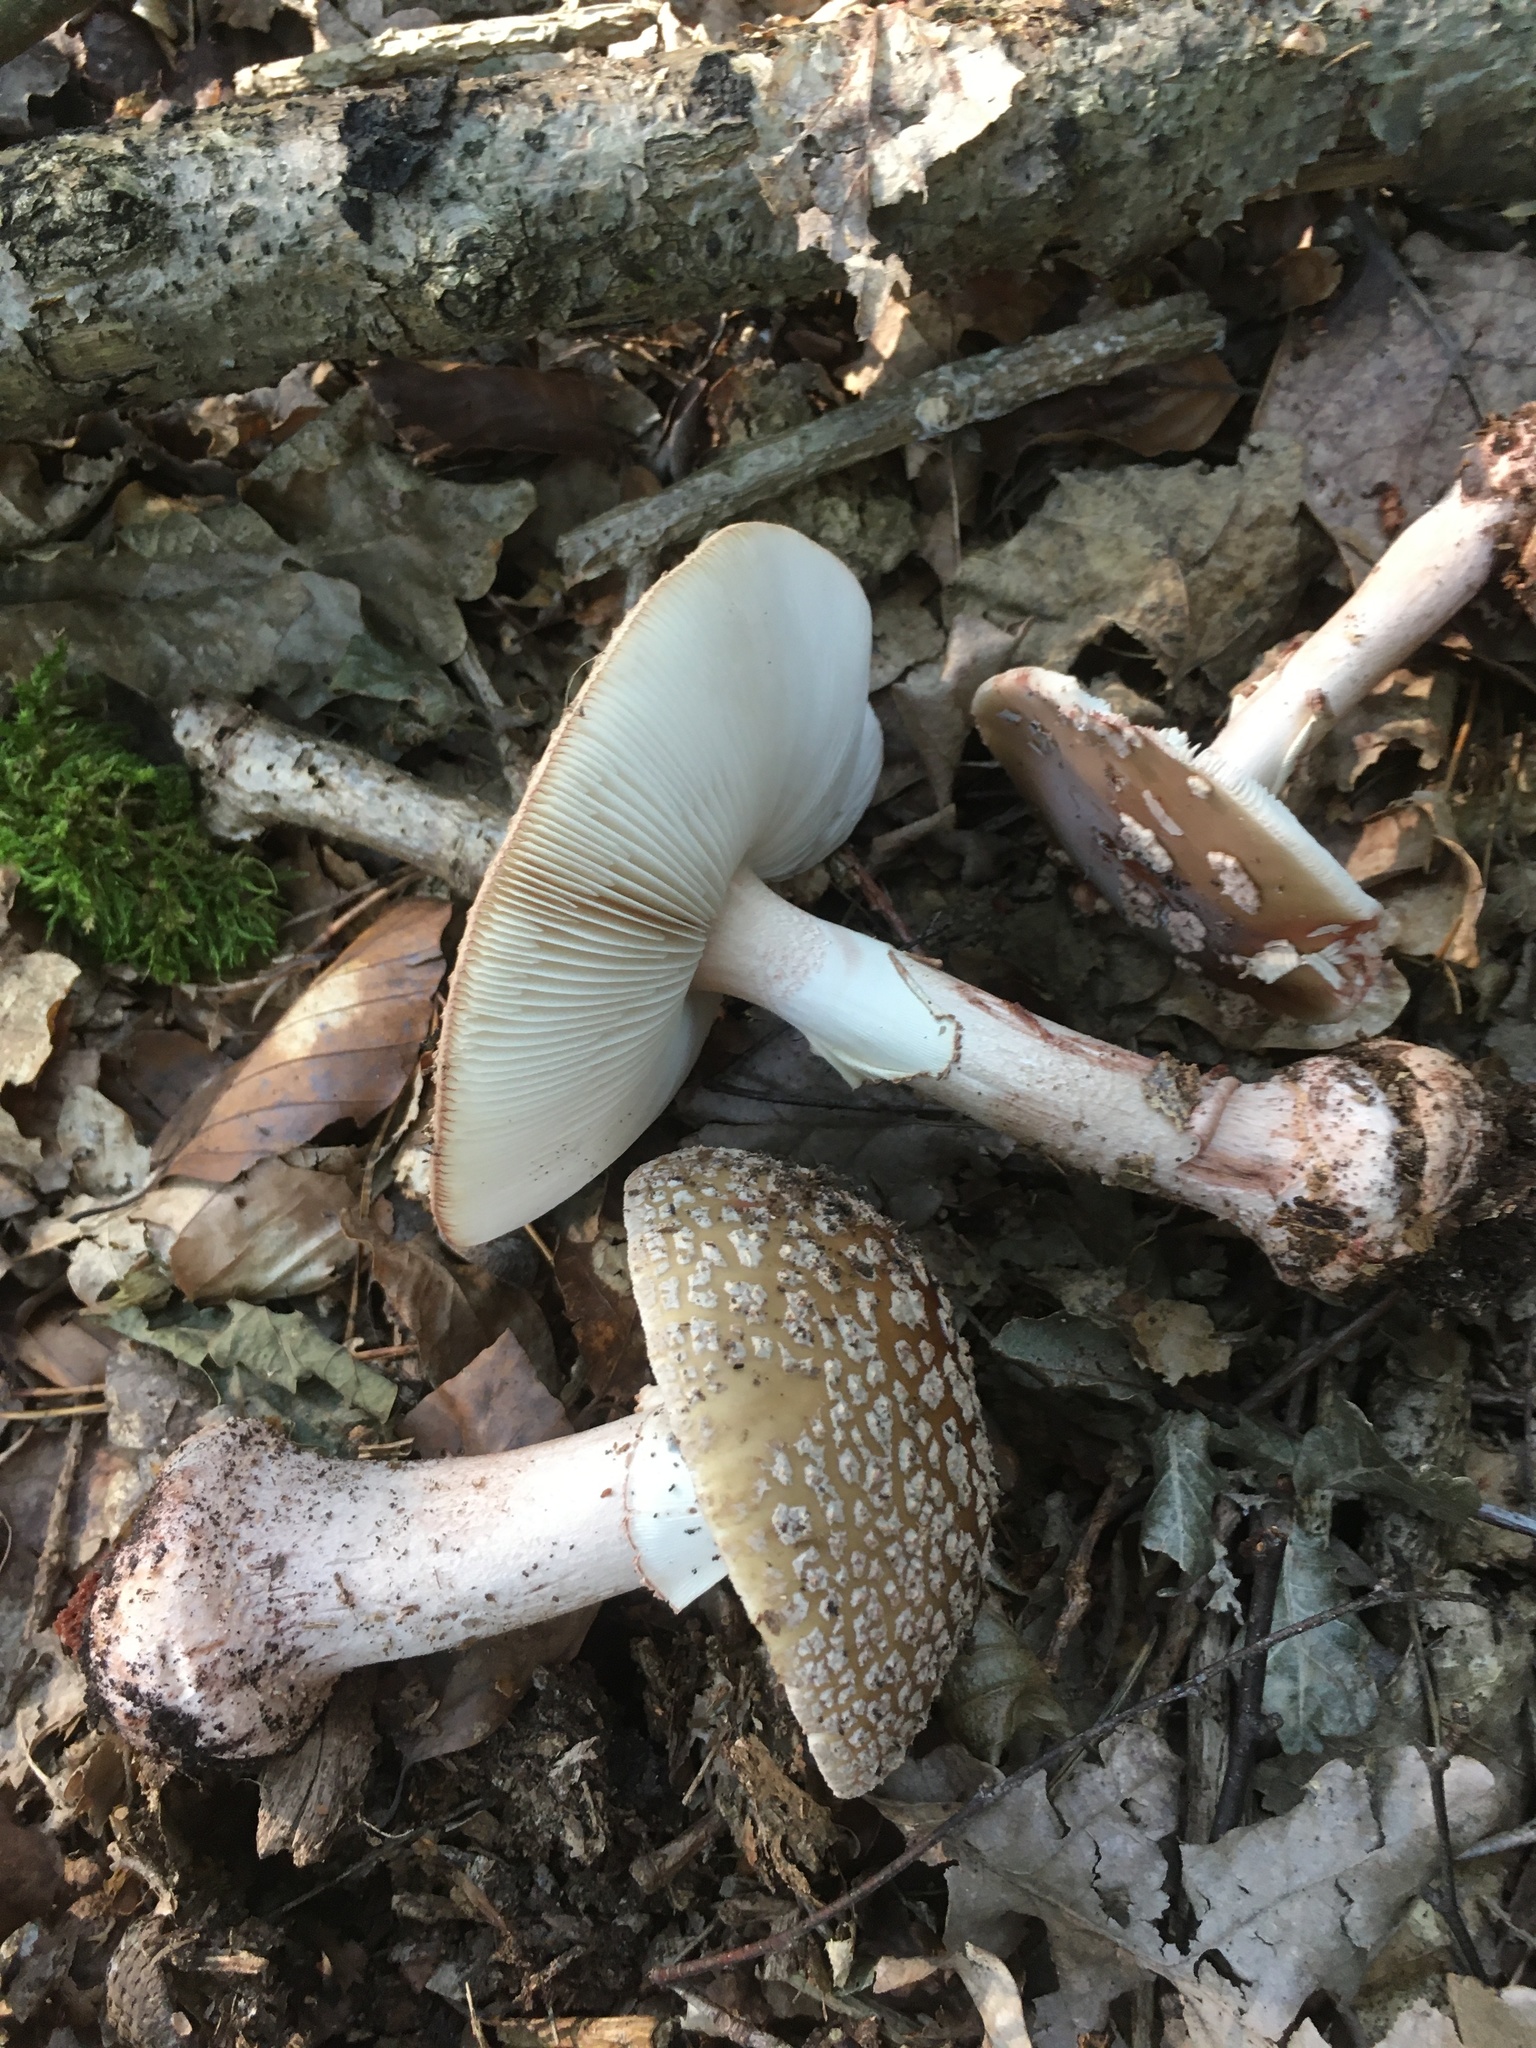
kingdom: Fungi
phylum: Basidiomycota
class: Agaricomycetes
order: Agaricales
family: Amanitaceae
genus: Amanita
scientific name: Amanita rubescens
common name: Blusher
